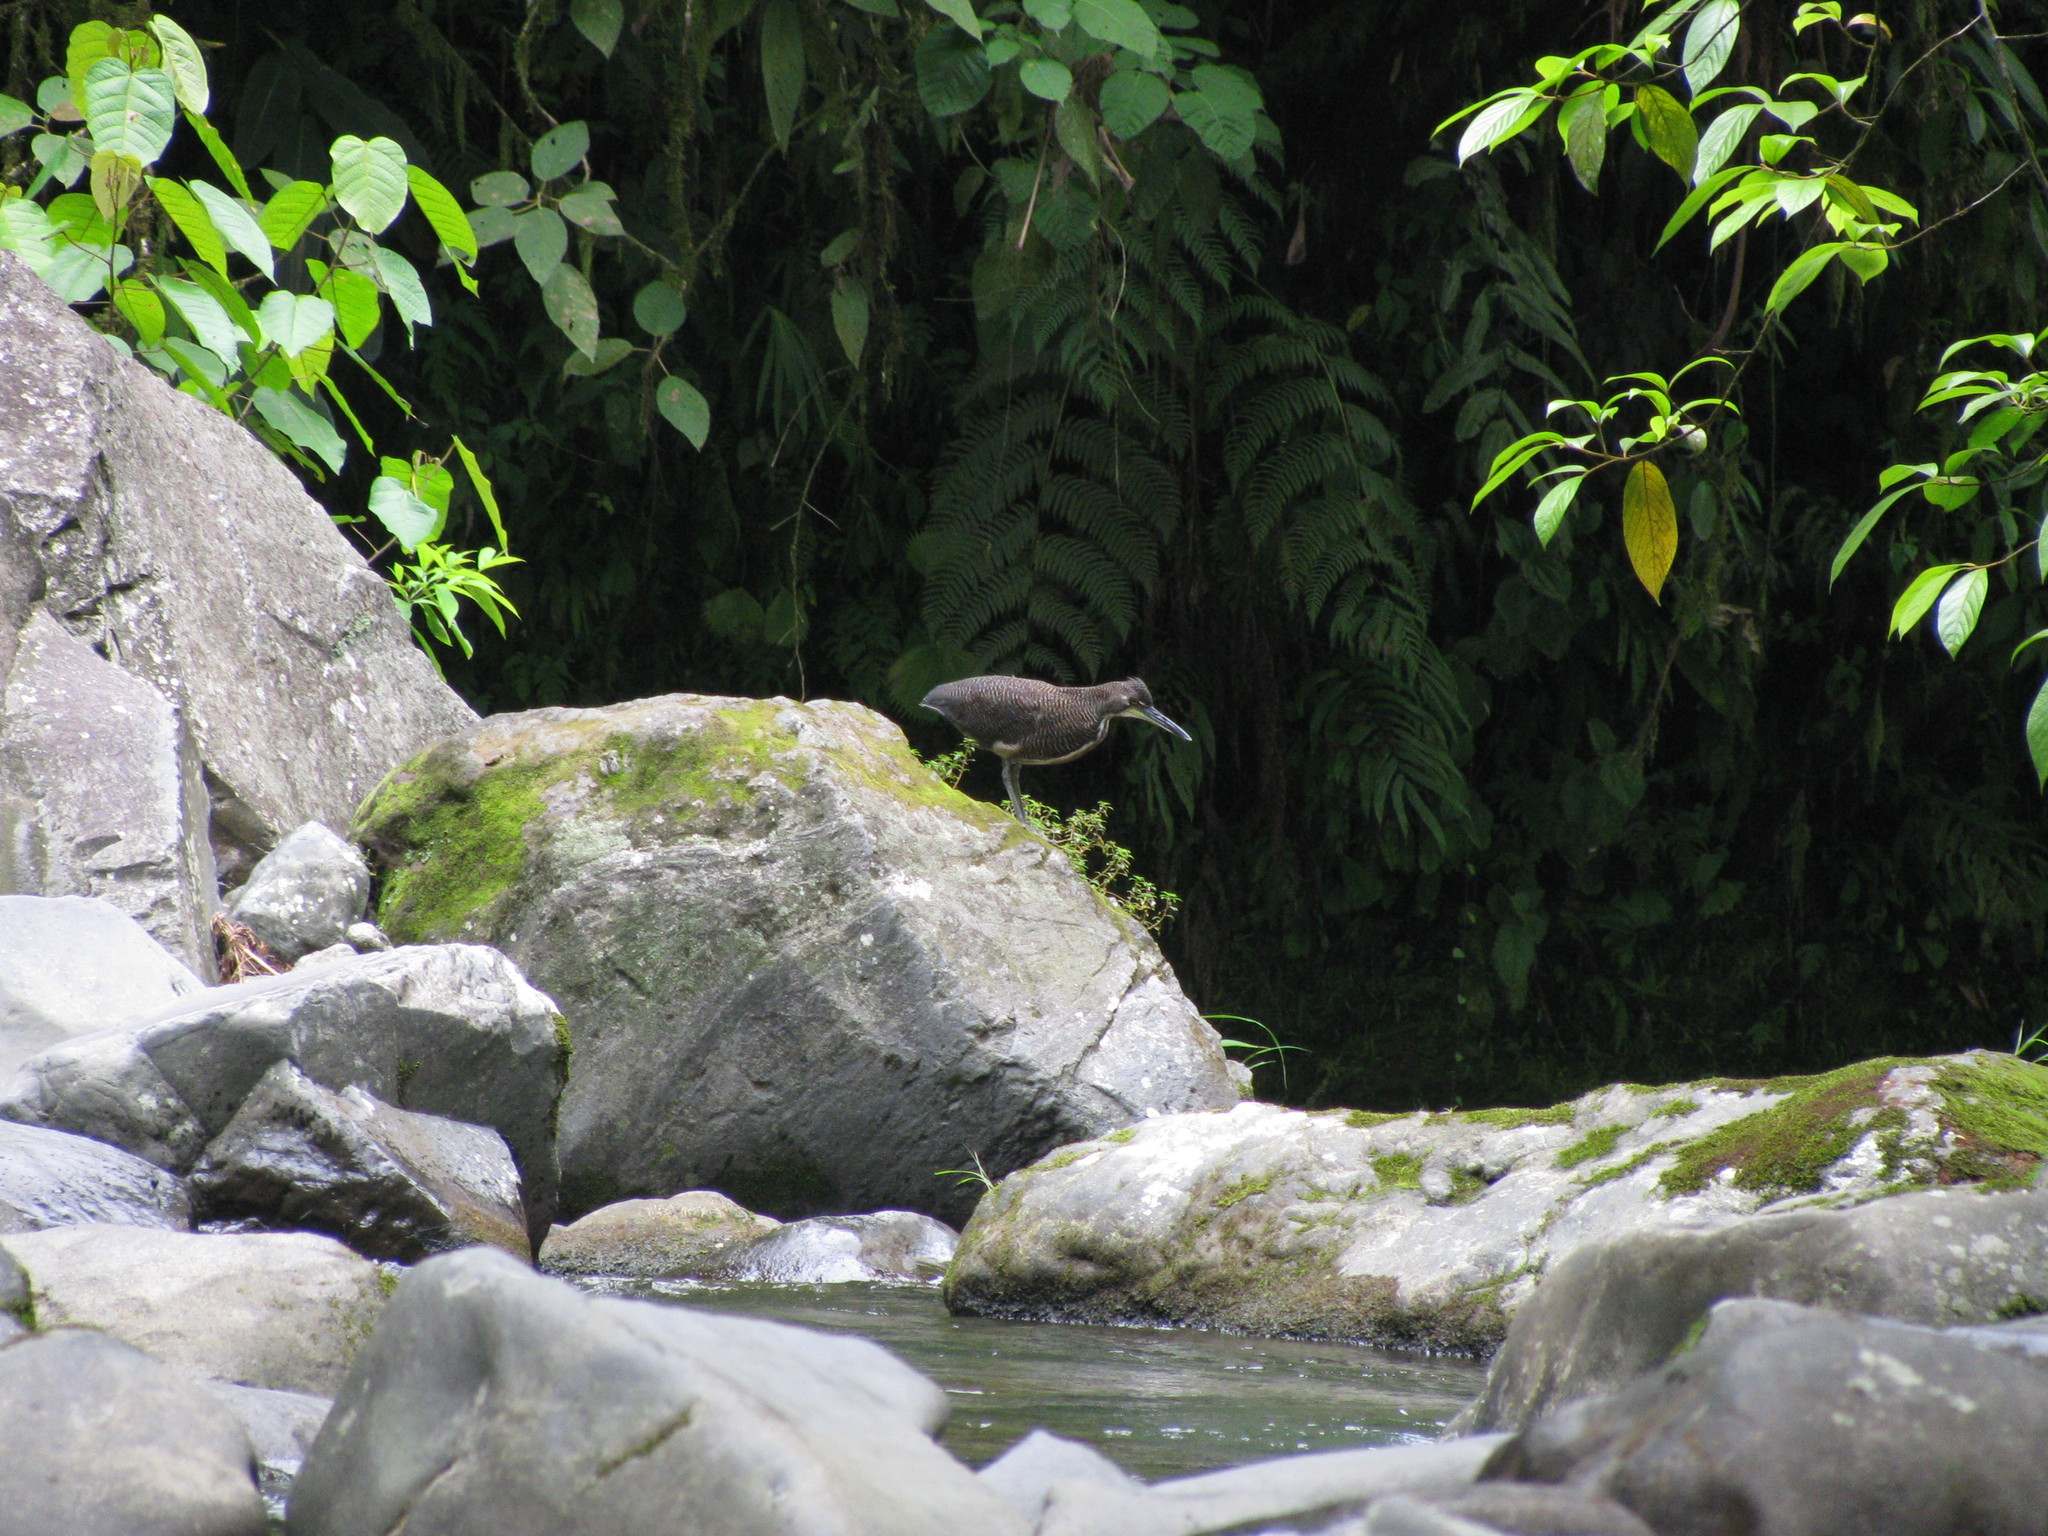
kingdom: Animalia
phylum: Chordata
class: Aves
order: Pelecaniformes
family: Ardeidae
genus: Tigrisoma
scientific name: Tigrisoma mexicanum
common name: Bare-throated tiger-heron
